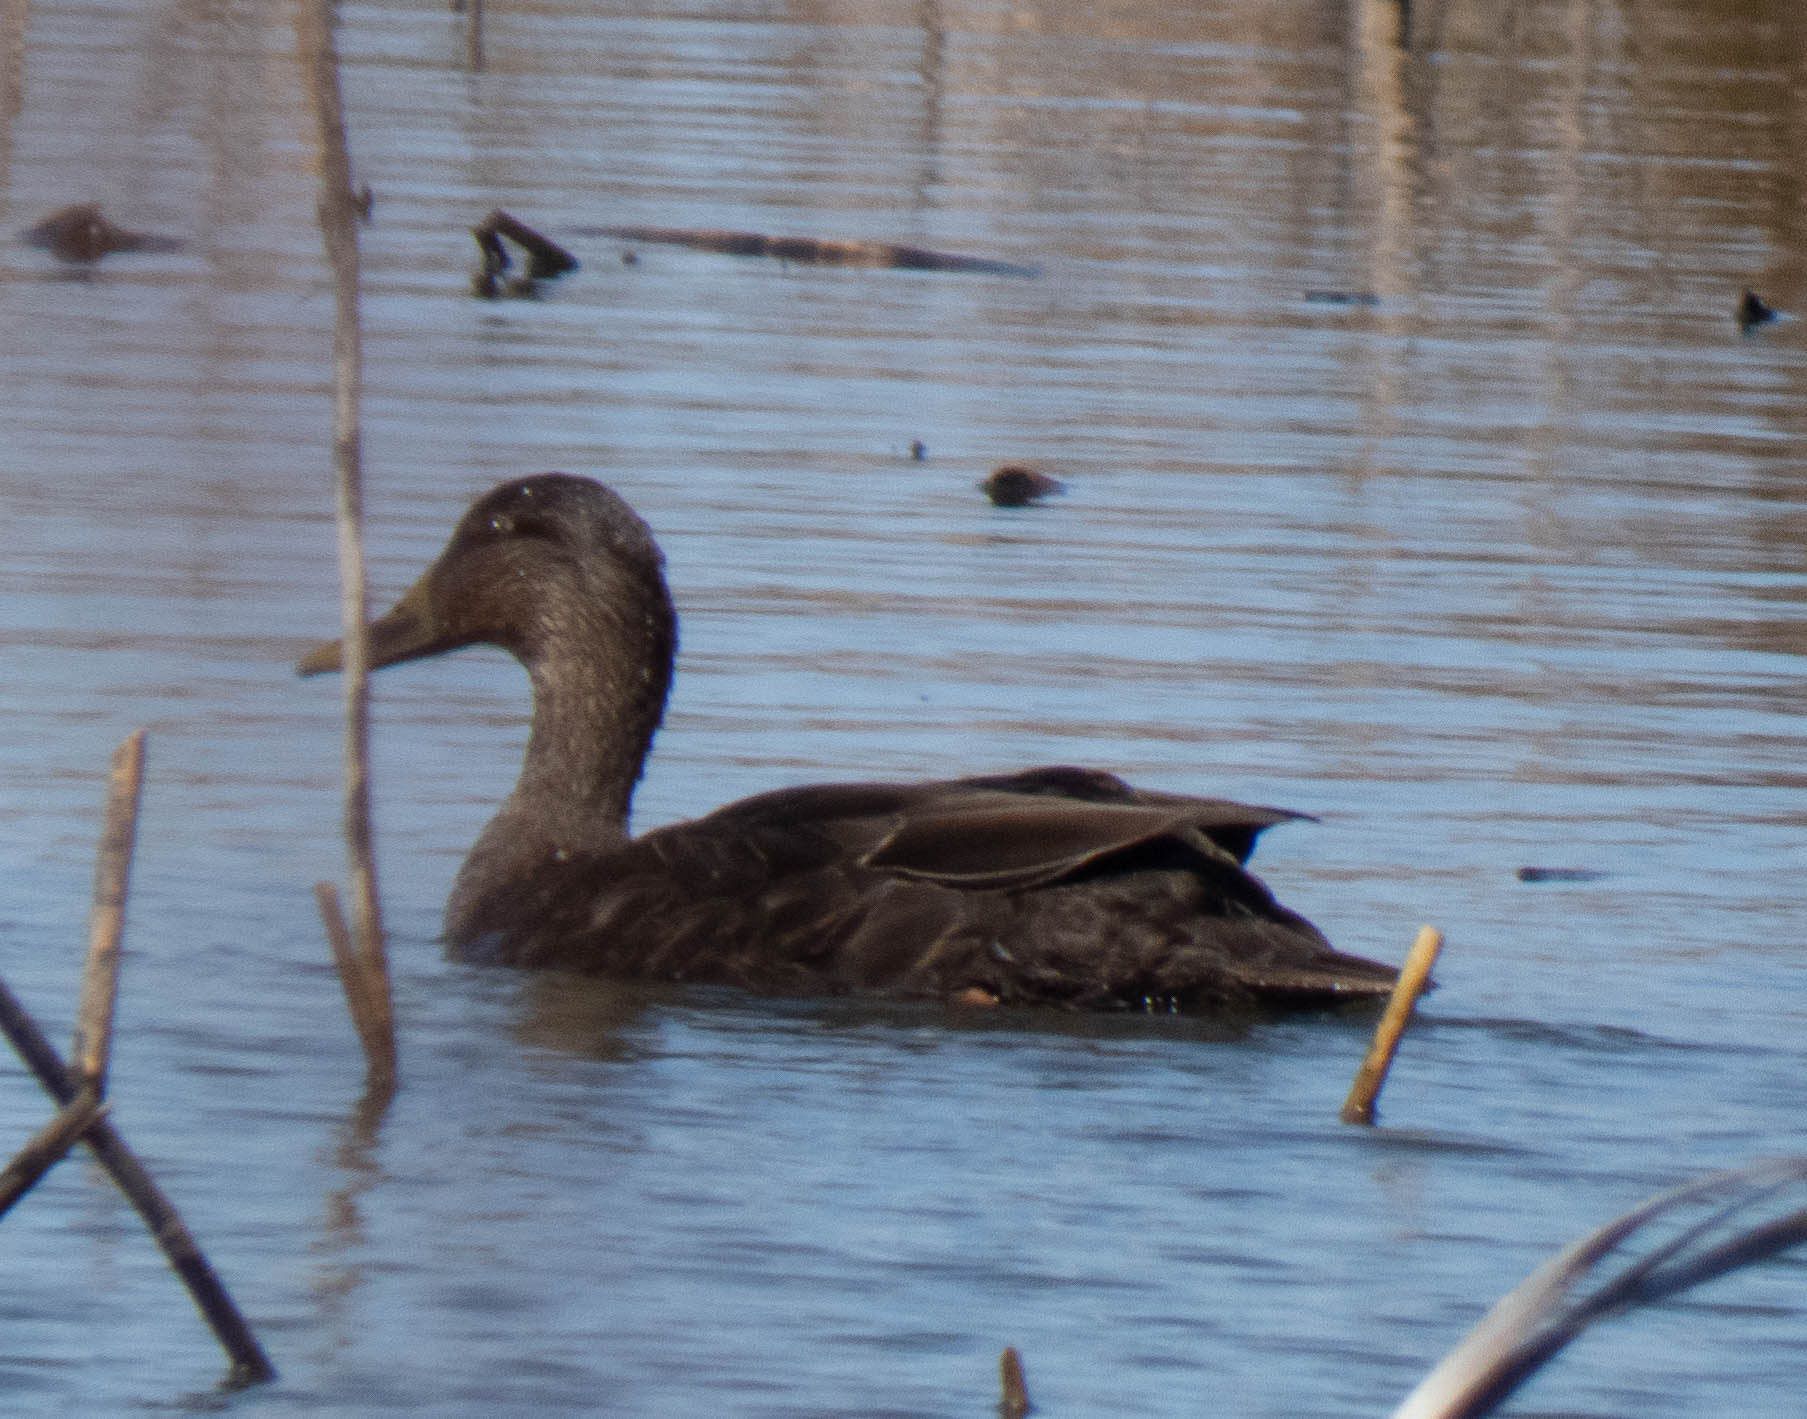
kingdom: Animalia
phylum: Chordata
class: Aves
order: Anseriformes
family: Anatidae
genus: Anas
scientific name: Anas rubripes
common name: American black duck
